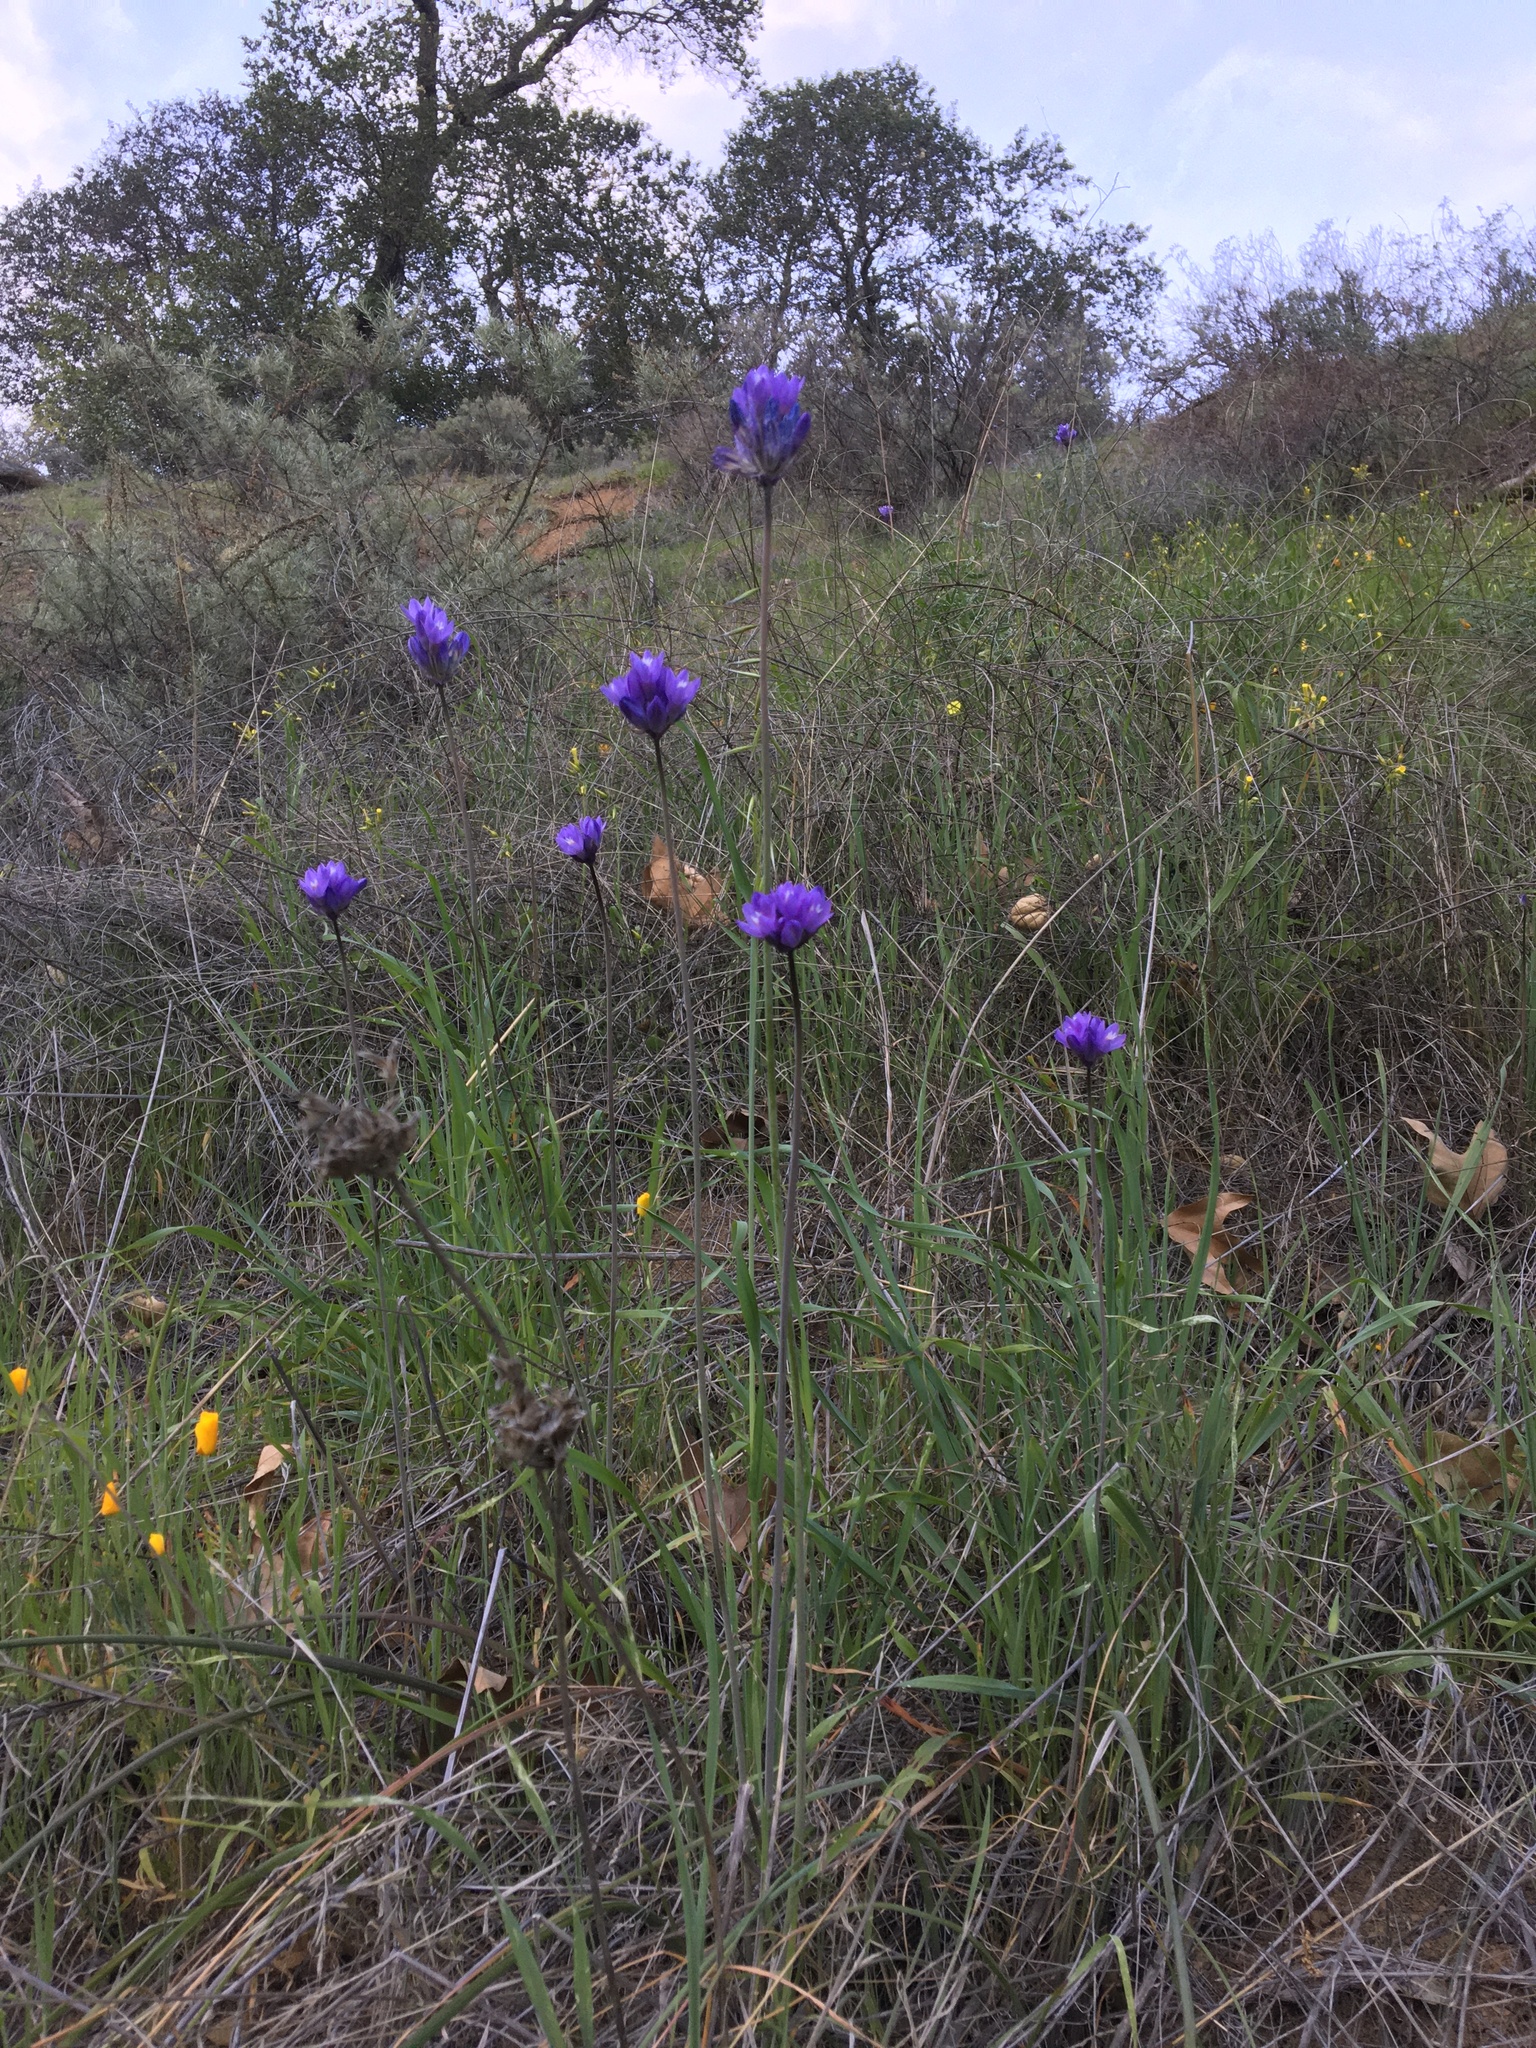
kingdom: Plantae
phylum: Tracheophyta
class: Liliopsida
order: Asparagales
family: Asparagaceae
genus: Dipterostemon
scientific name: Dipterostemon capitatus
